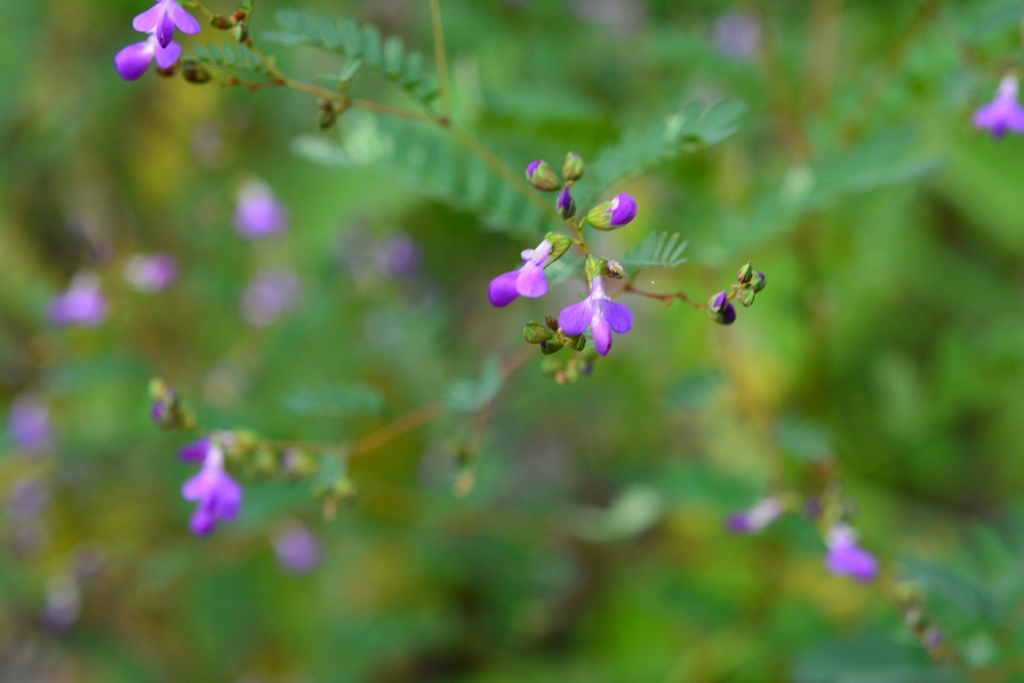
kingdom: Plantae
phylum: Tracheophyta
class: Magnoliopsida
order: Fabales
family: Fabaceae
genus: Marina
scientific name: Marina scopa
